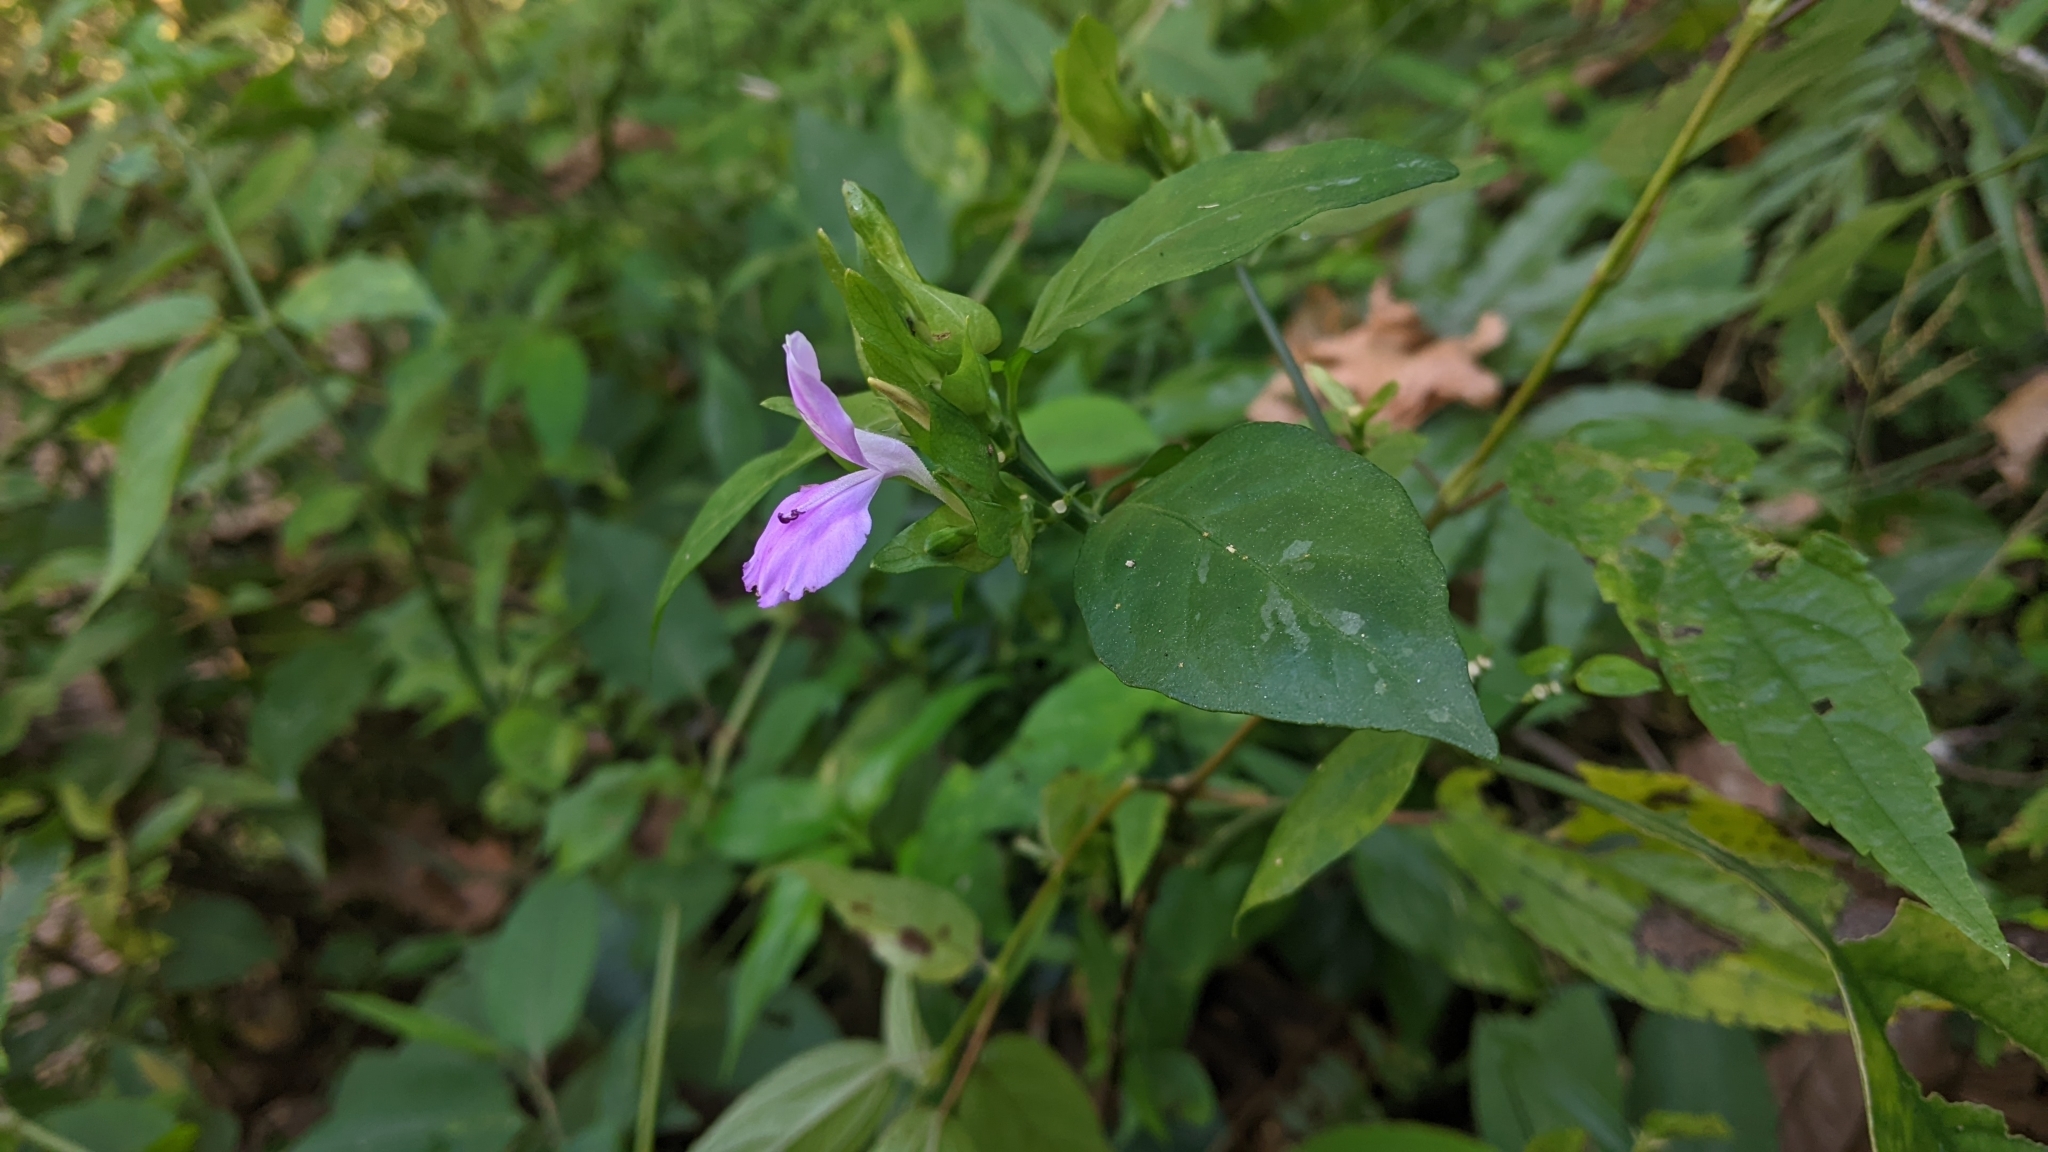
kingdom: Plantae
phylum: Tracheophyta
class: Magnoliopsida
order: Lamiales
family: Acanthaceae
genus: Dicliptera
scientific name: Dicliptera tinctoria
